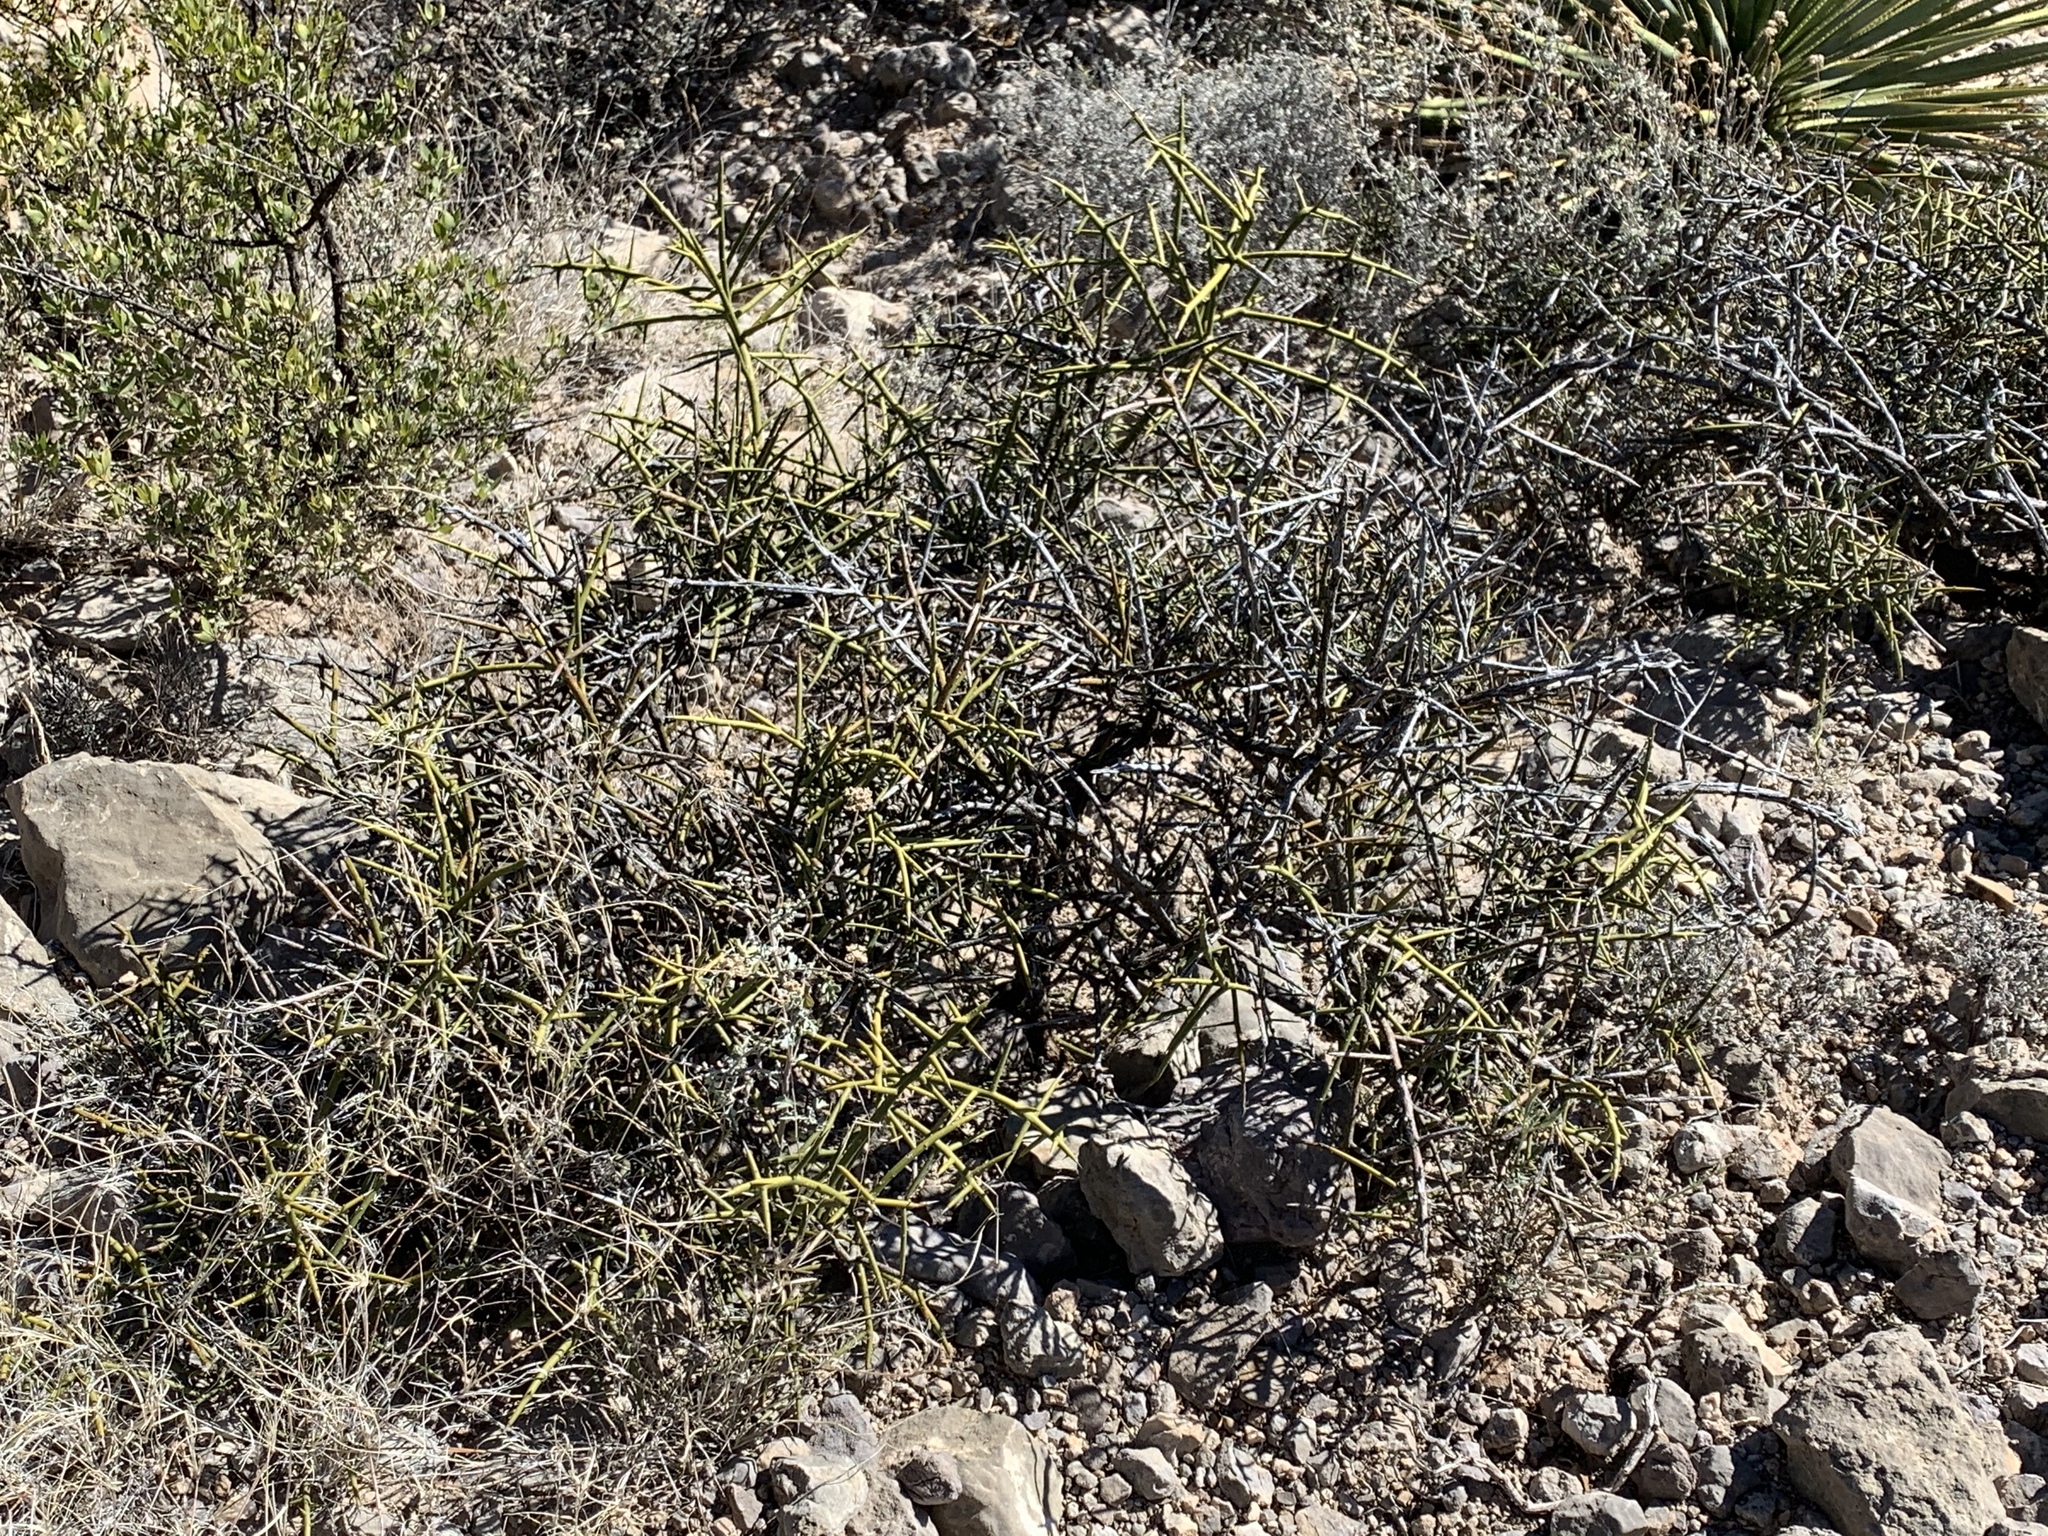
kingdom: Plantae
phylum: Tracheophyta
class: Magnoliopsida
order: Brassicales
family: Koeberliniaceae
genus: Koeberlinia
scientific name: Koeberlinia spinosa
